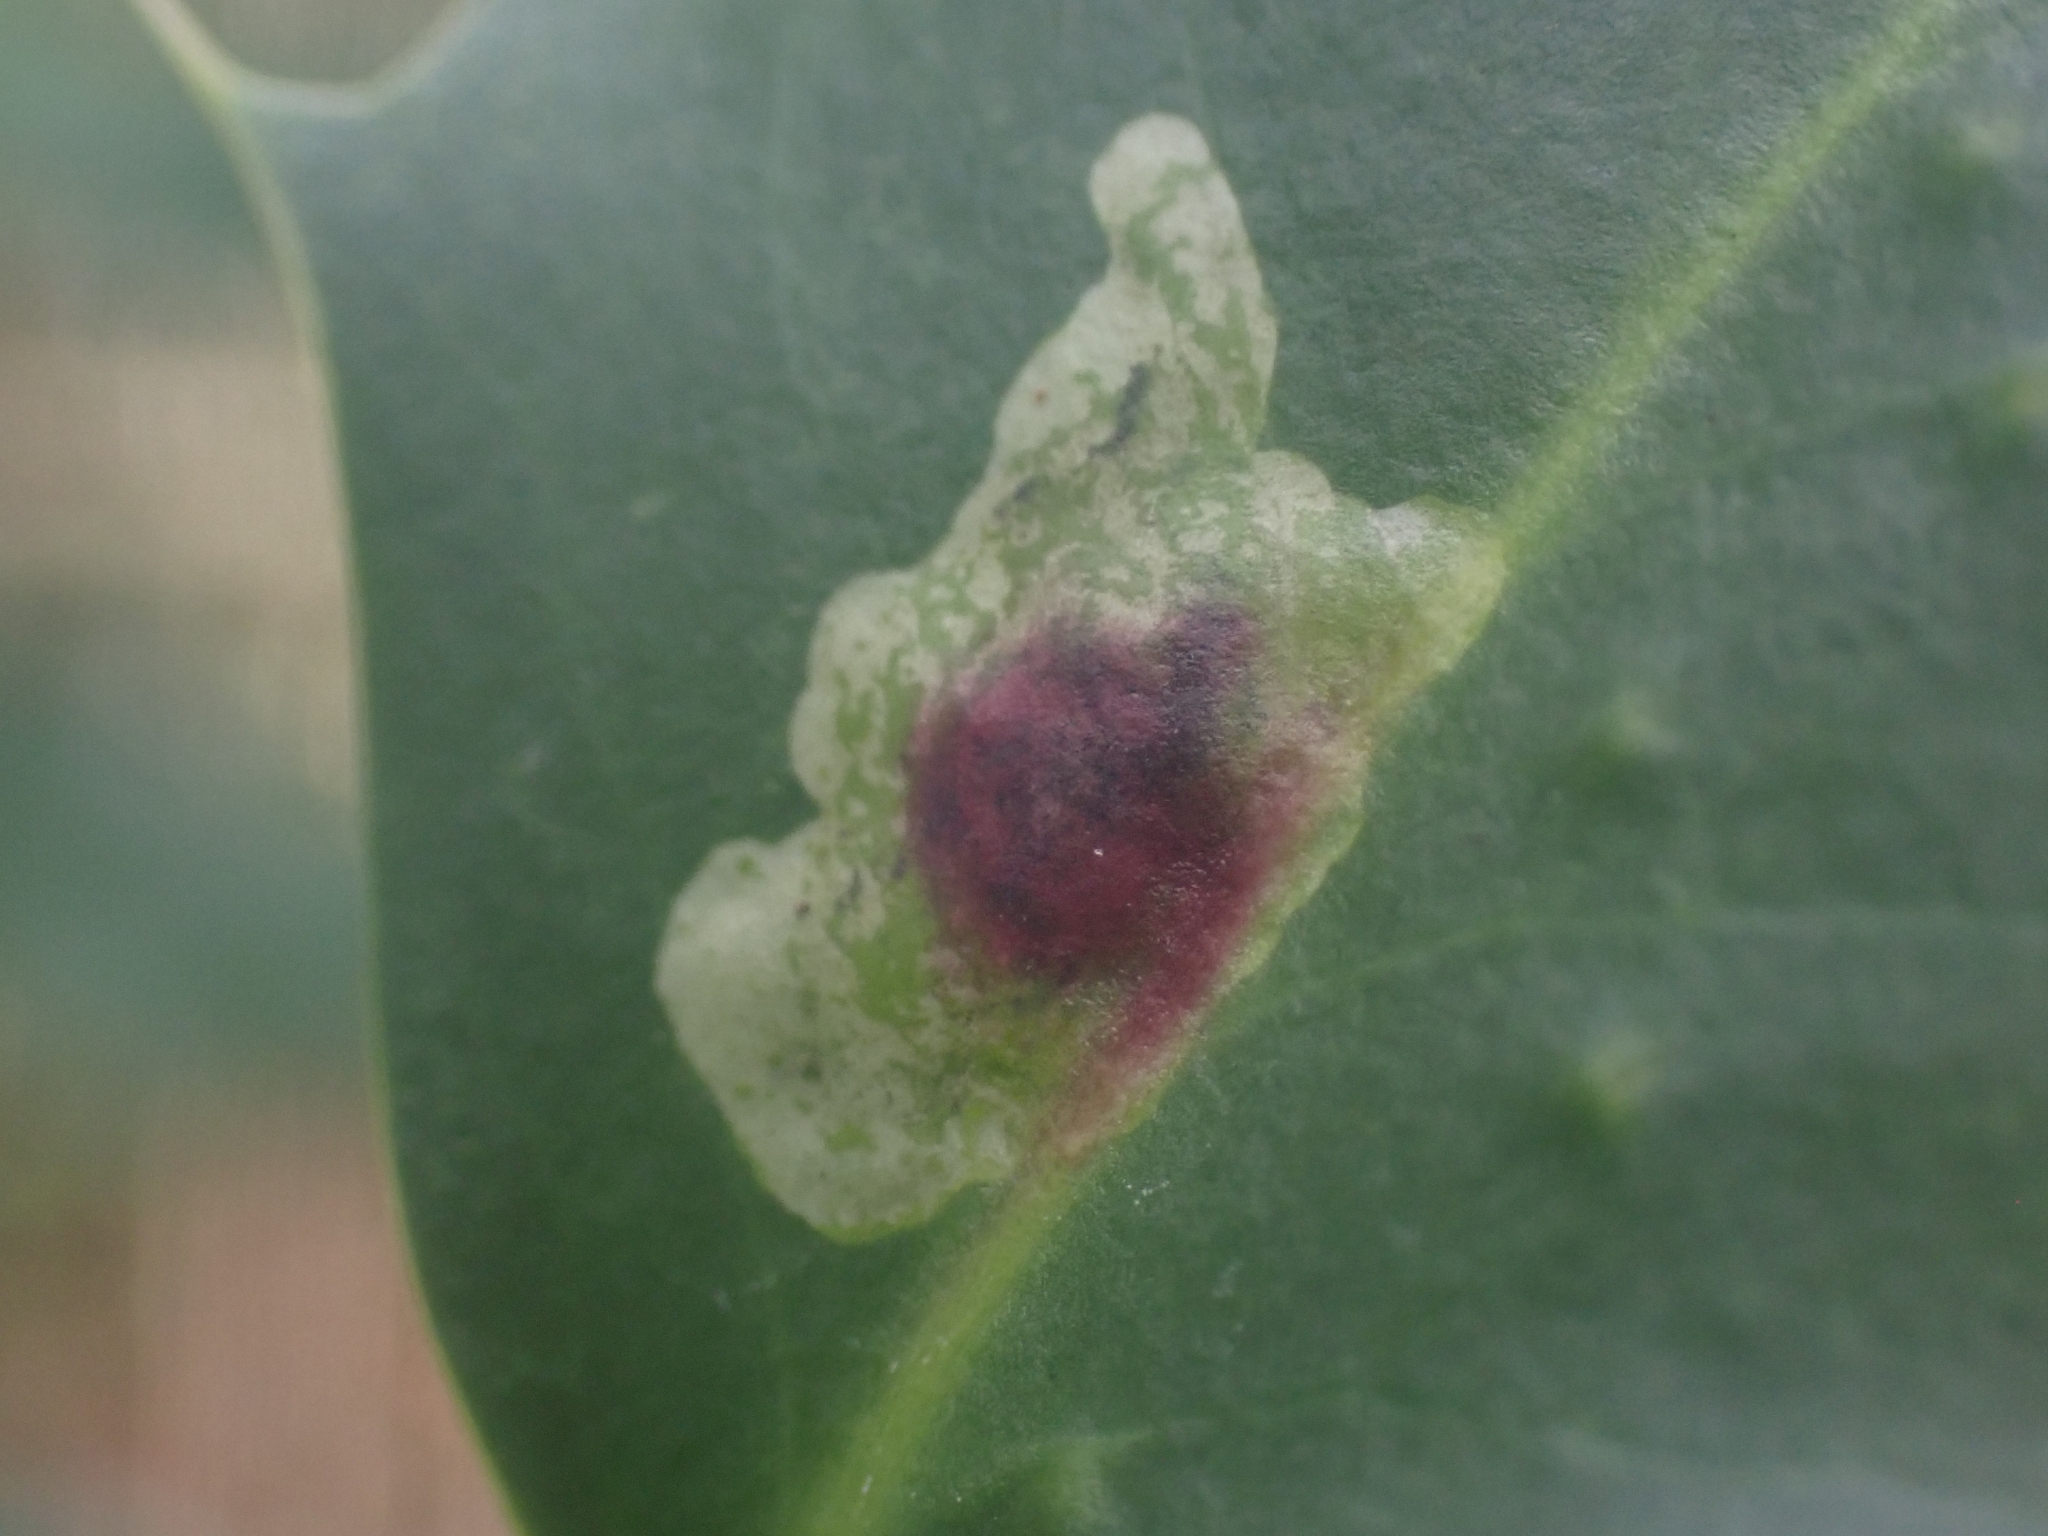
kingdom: Animalia
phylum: Arthropoda
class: Insecta
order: Diptera
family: Agromyzidae
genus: Phytomyza
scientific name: Phytomyza ilicis
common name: Holly leafminer
